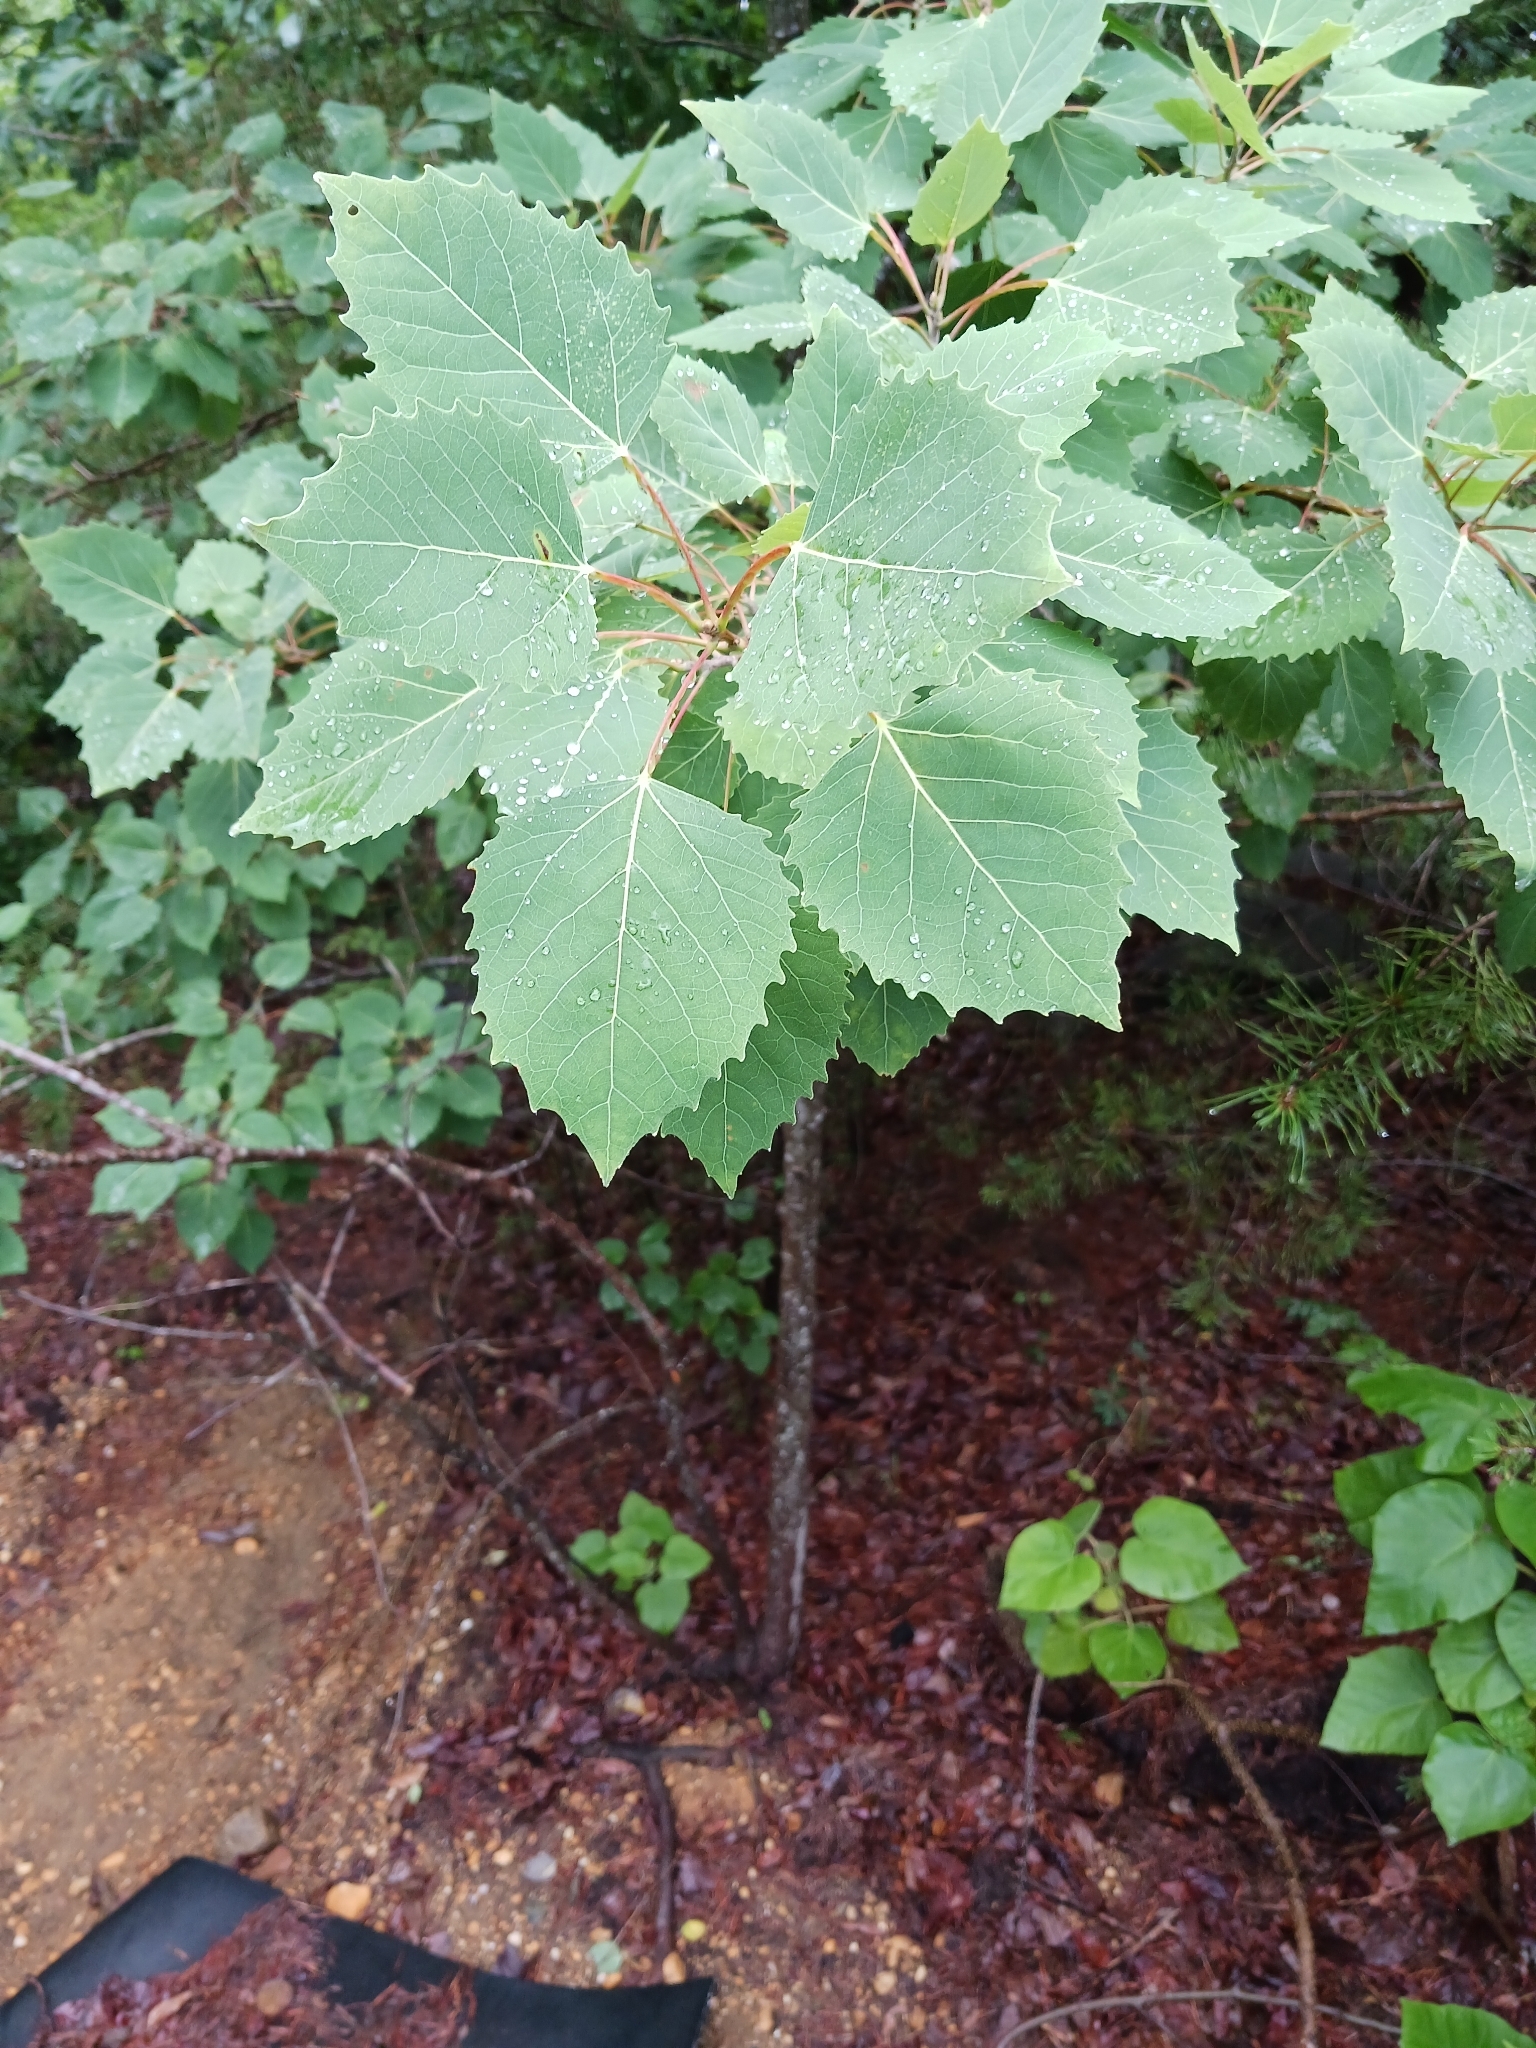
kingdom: Plantae
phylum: Tracheophyta
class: Magnoliopsida
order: Malpighiales
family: Salicaceae
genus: Populus
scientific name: Populus grandidentata
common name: Bigtooth aspen
